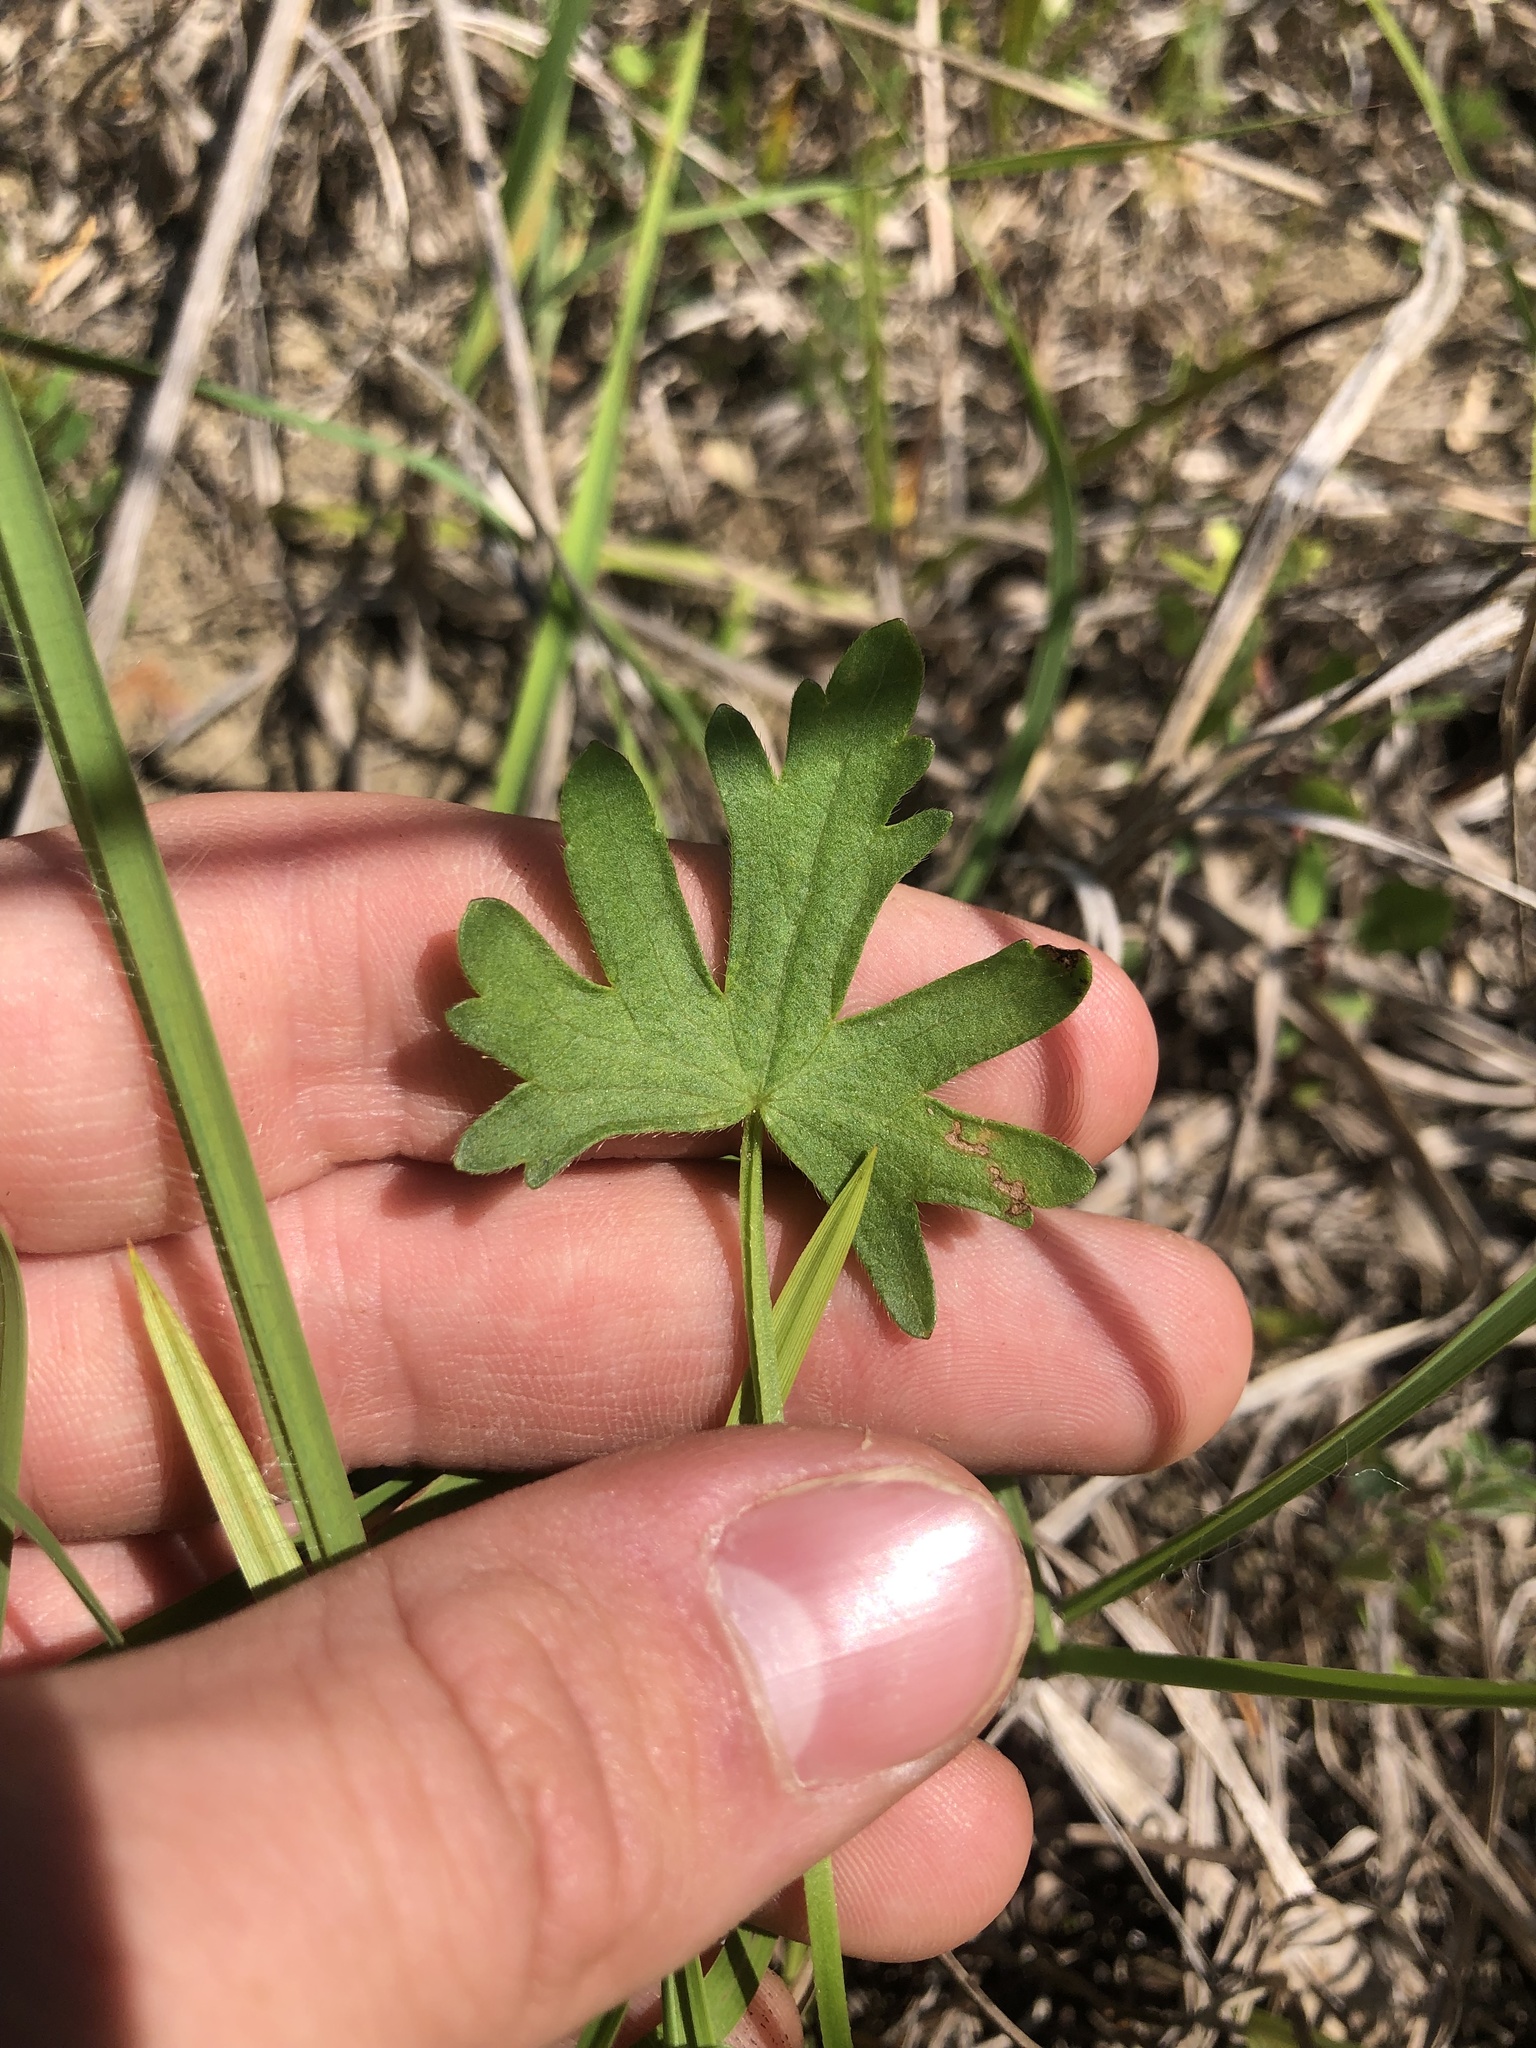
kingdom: Plantae
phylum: Tracheophyta
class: Magnoliopsida
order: Malvales
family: Malvaceae
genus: Callirhoe
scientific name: Callirhoe papaver
